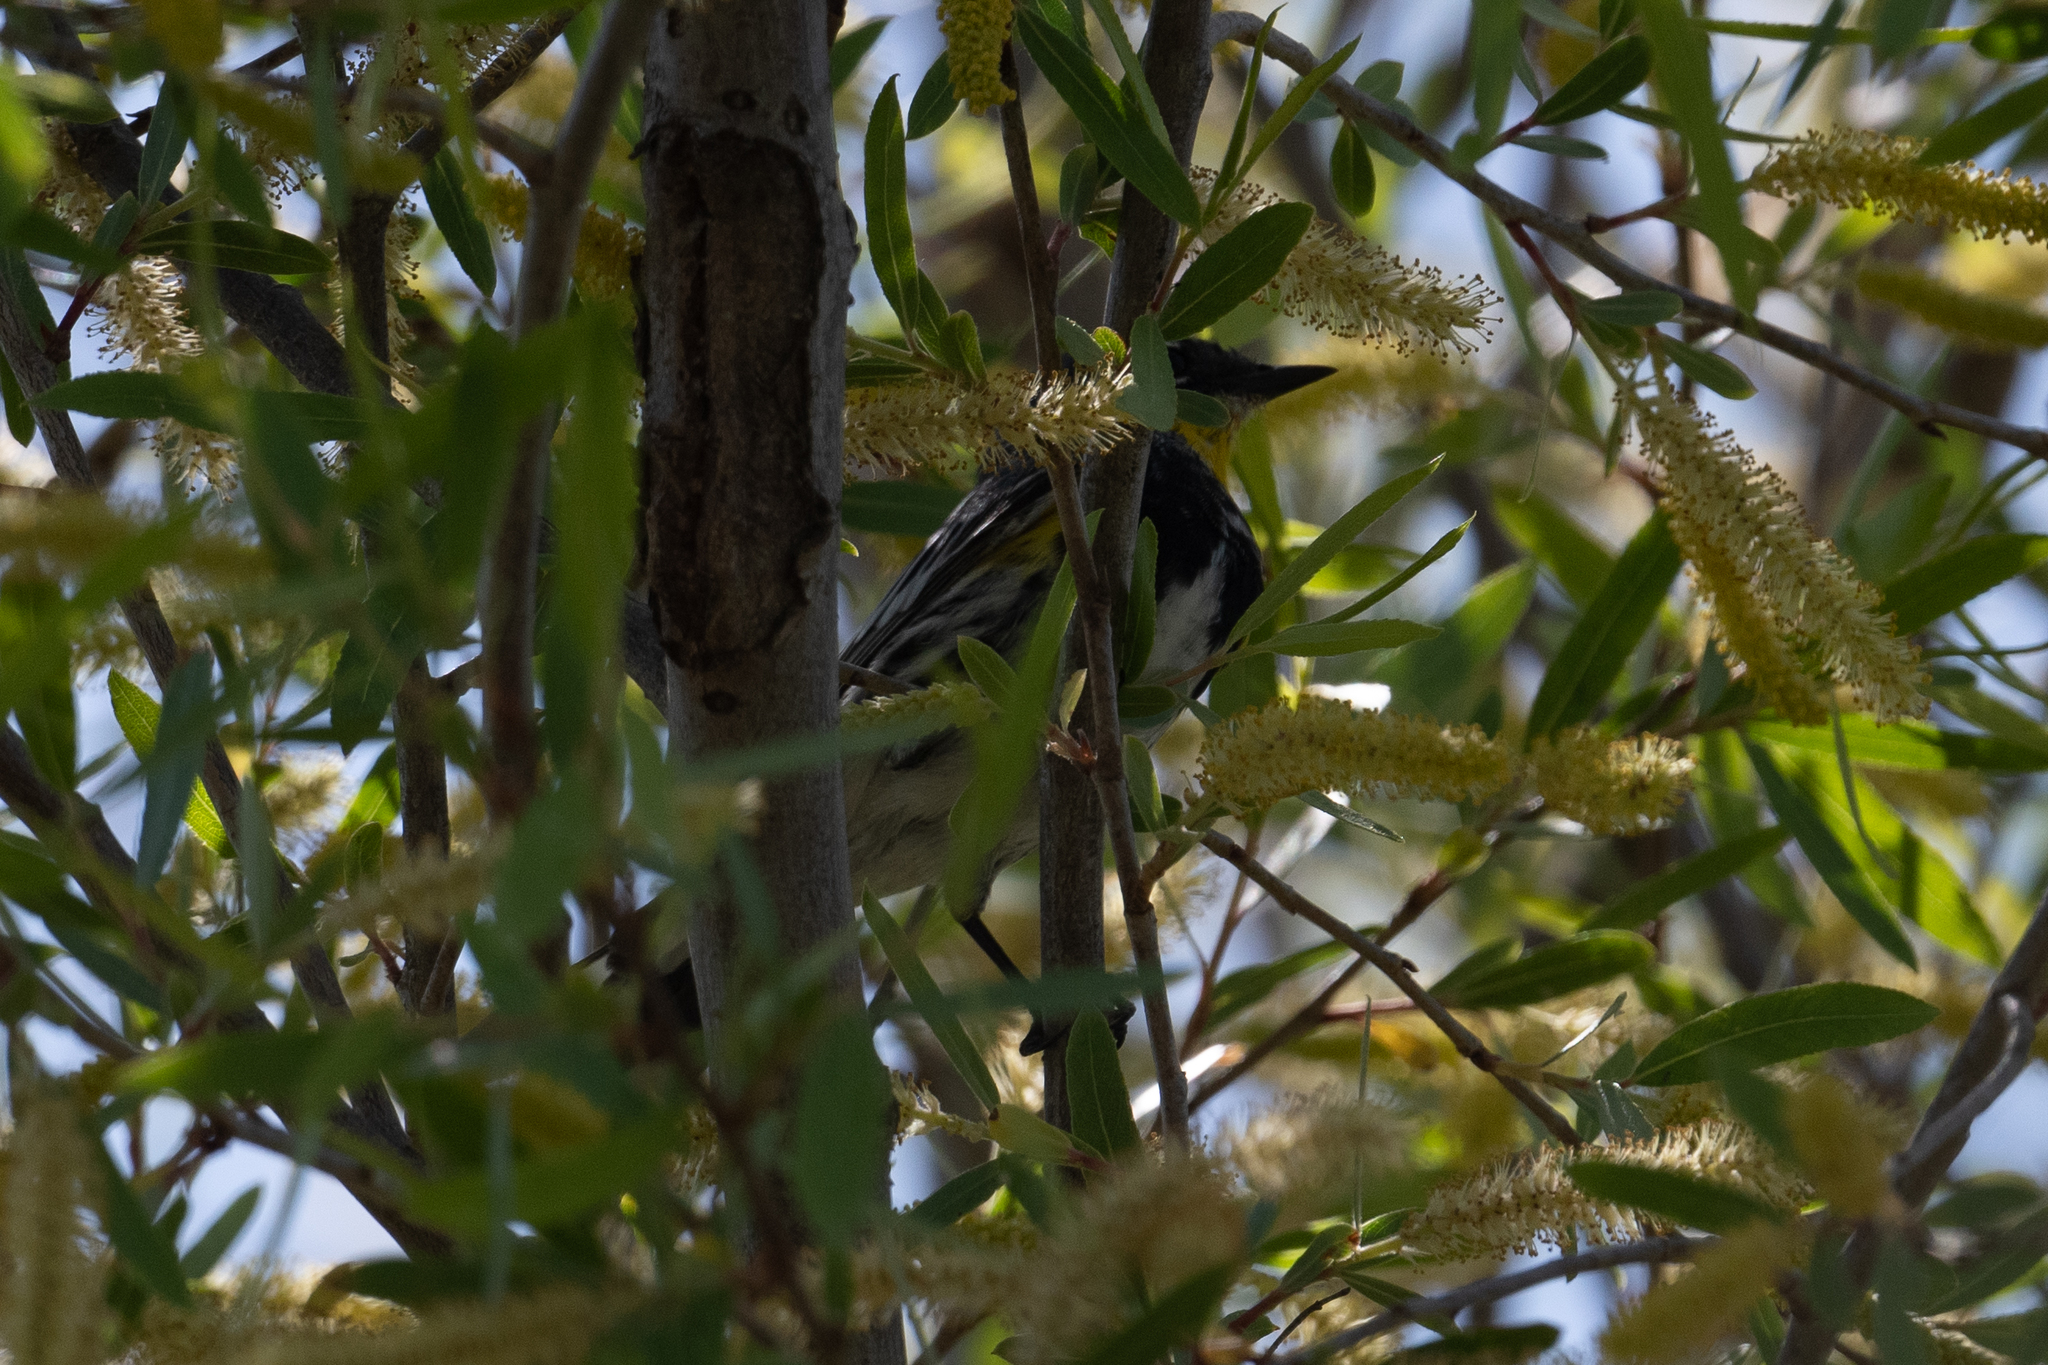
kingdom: Animalia
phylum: Chordata
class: Aves
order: Passeriformes
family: Parulidae
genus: Setophaga
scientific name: Setophaga coronata
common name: Myrtle warbler
